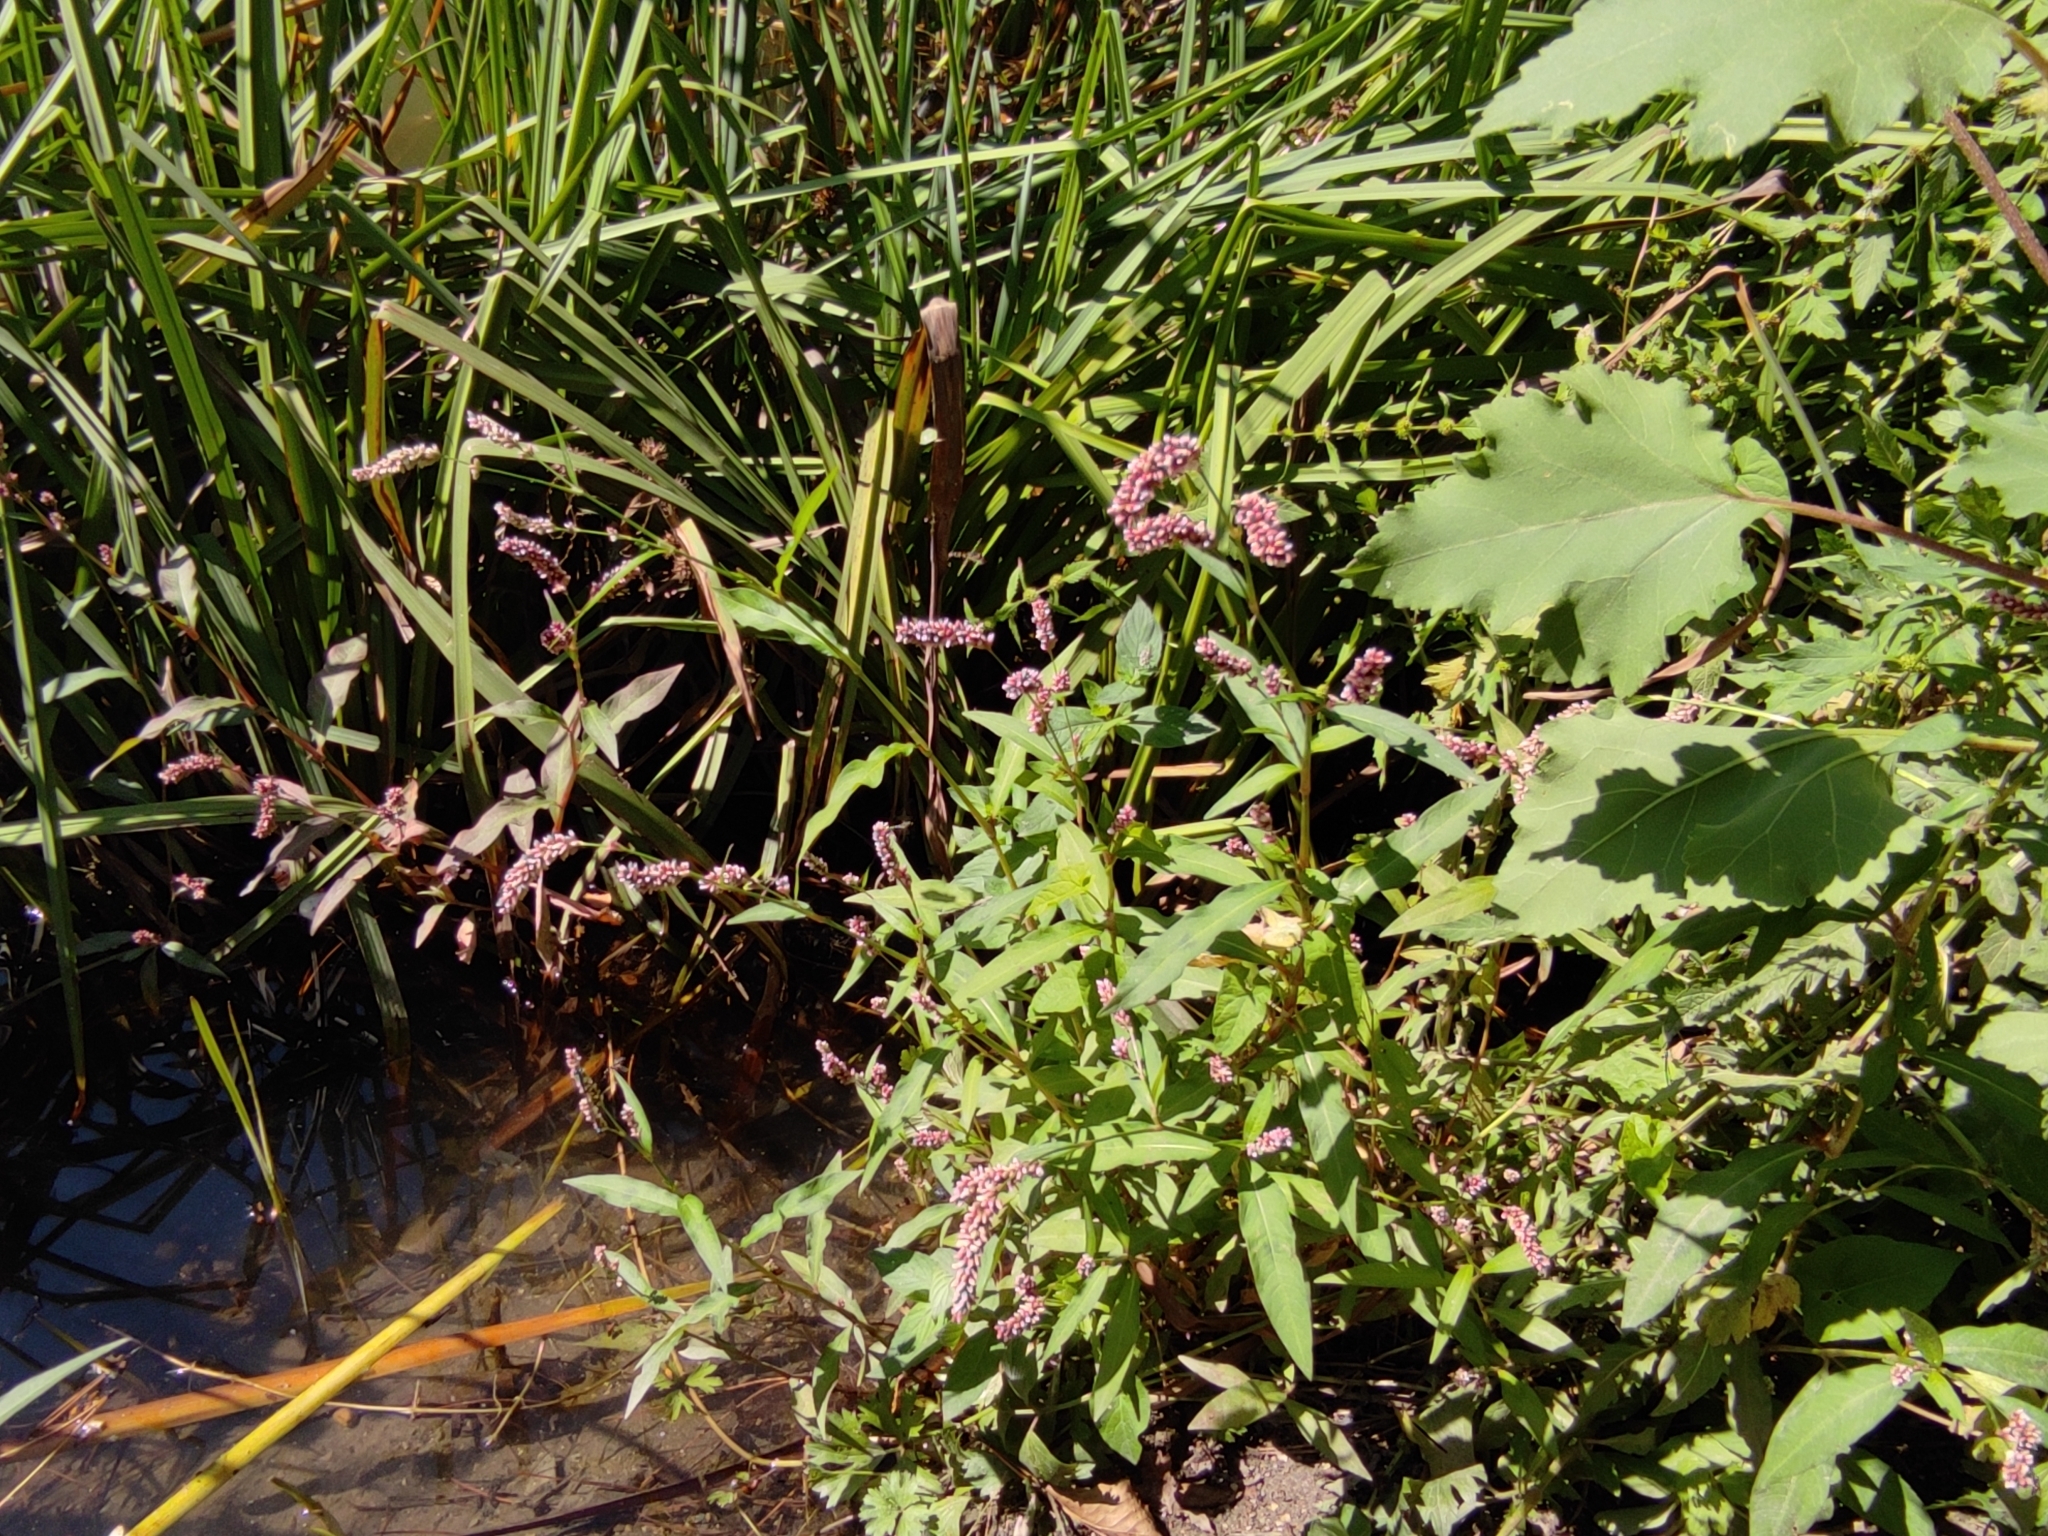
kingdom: Plantae
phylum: Tracheophyta
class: Magnoliopsida
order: Caryophyllales
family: Polygonaceae
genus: Persicaria
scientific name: Persicaria maculosa
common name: Redshank
